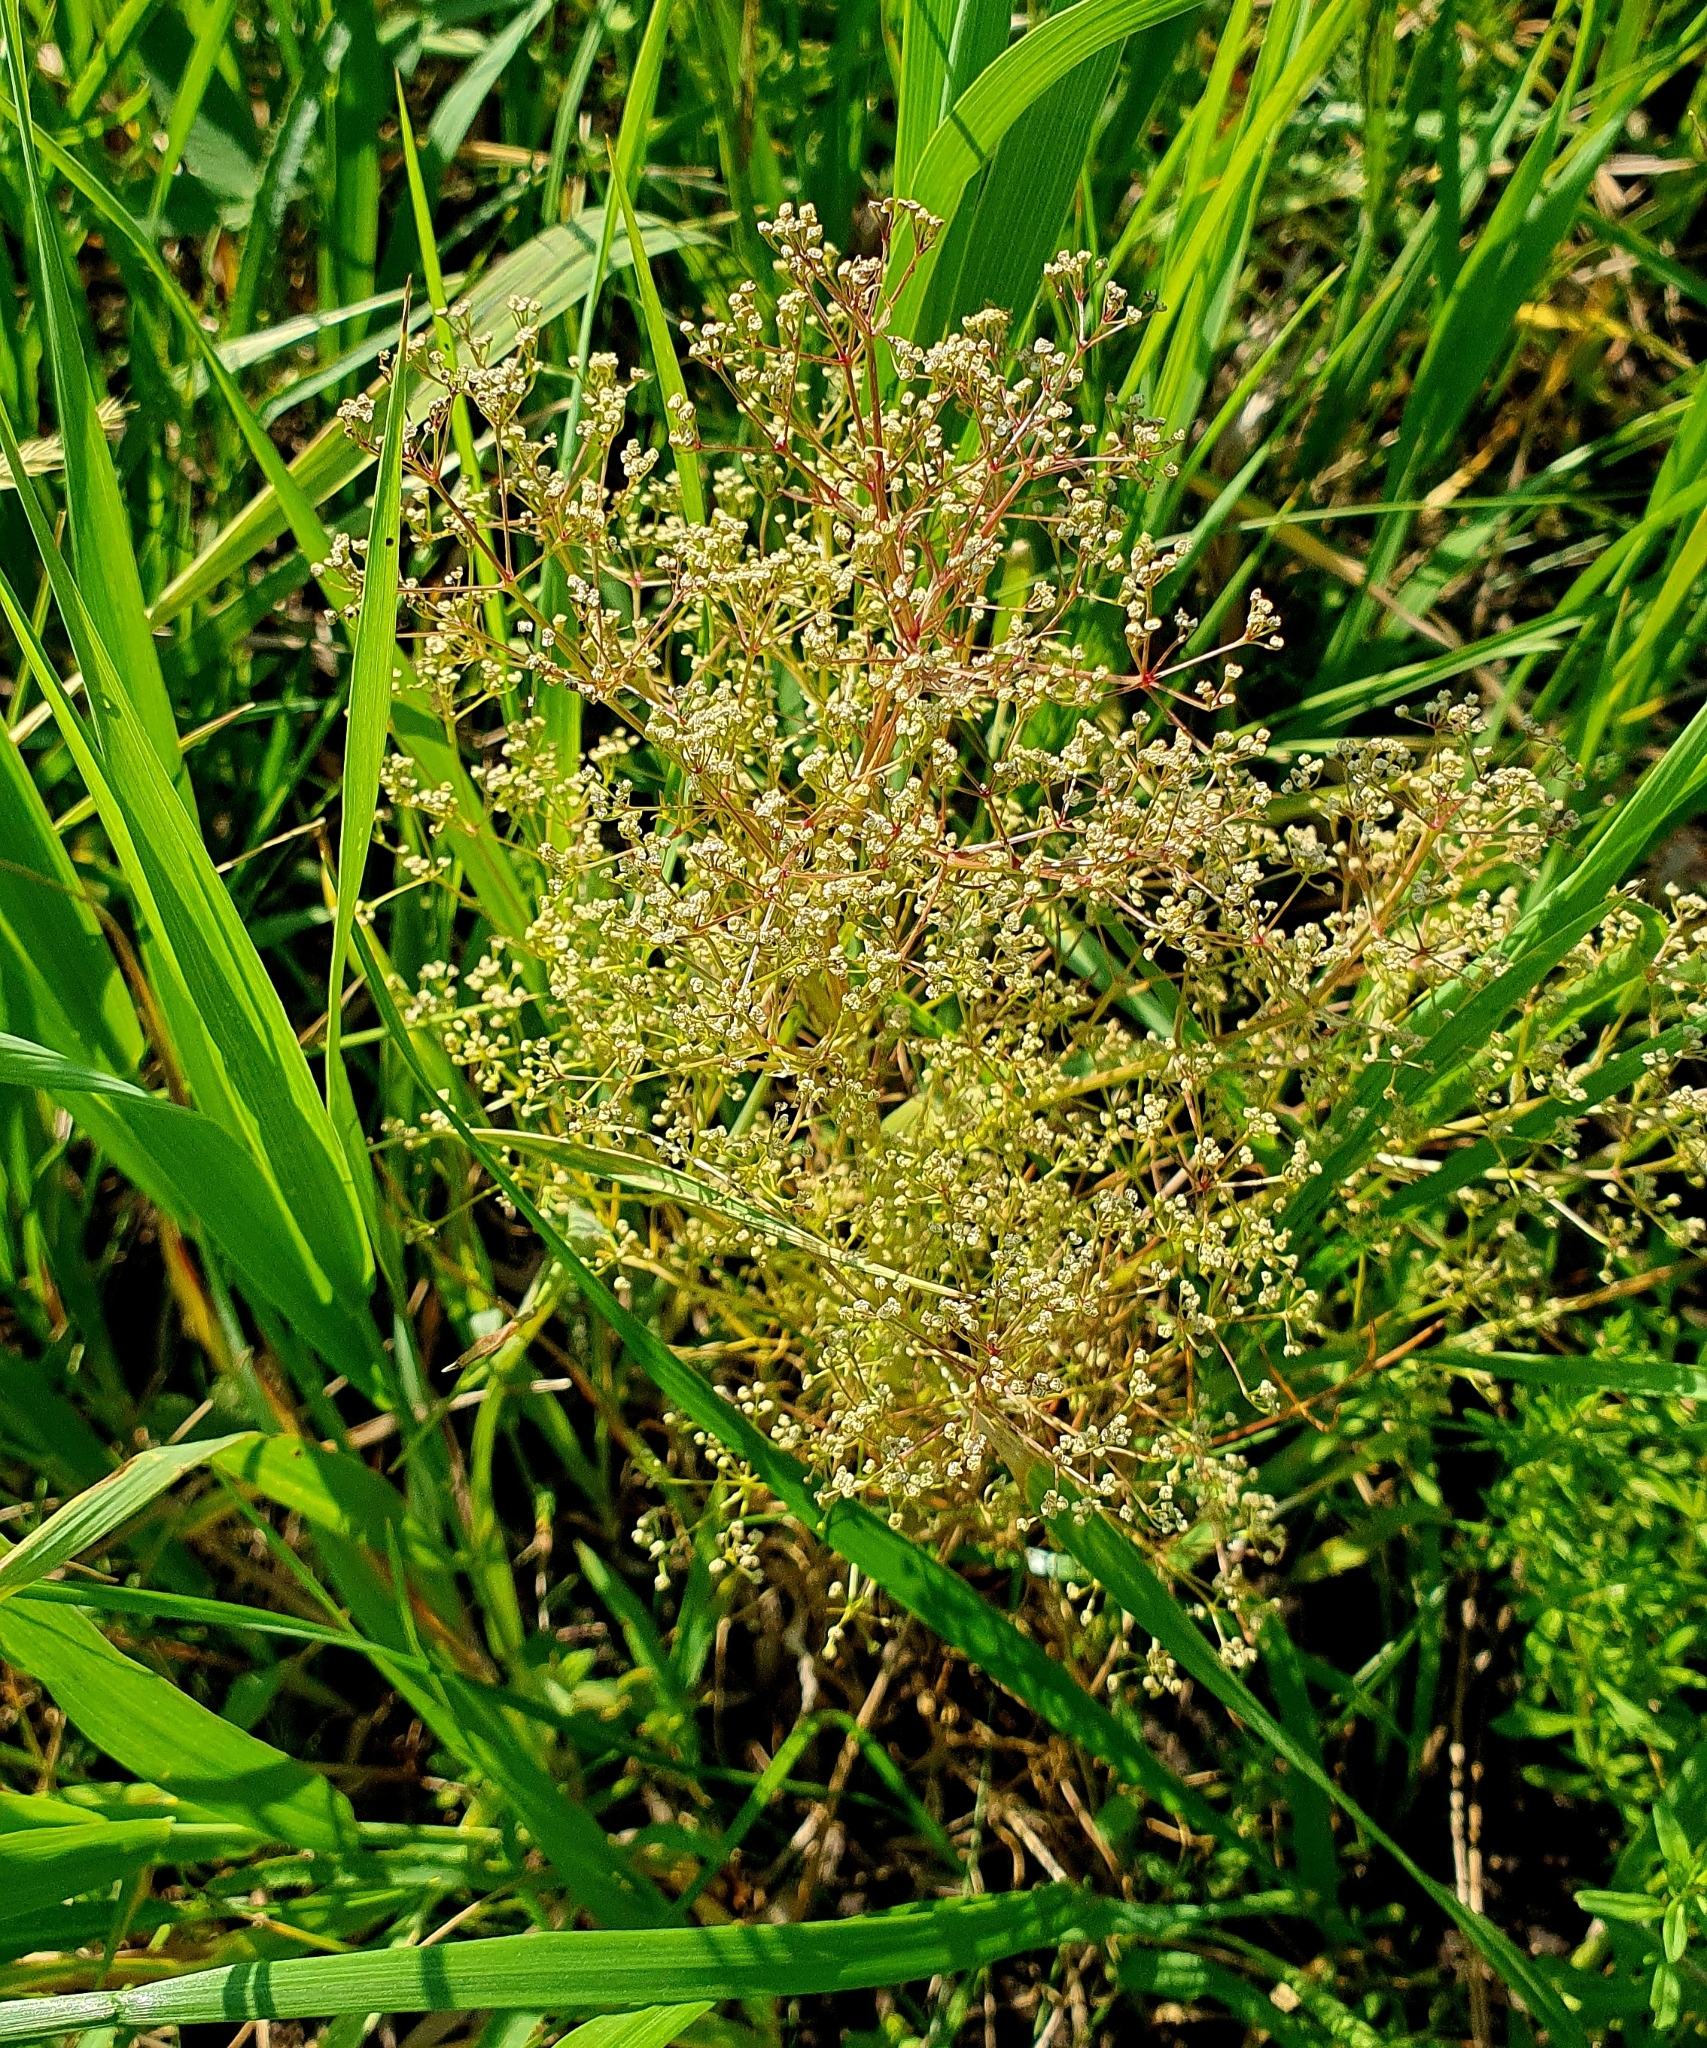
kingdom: Plantae
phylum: Tracheophyta
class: Magnoliopsida
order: Apiales
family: Apiaceae
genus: Trinia
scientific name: Trinia multicaulis
